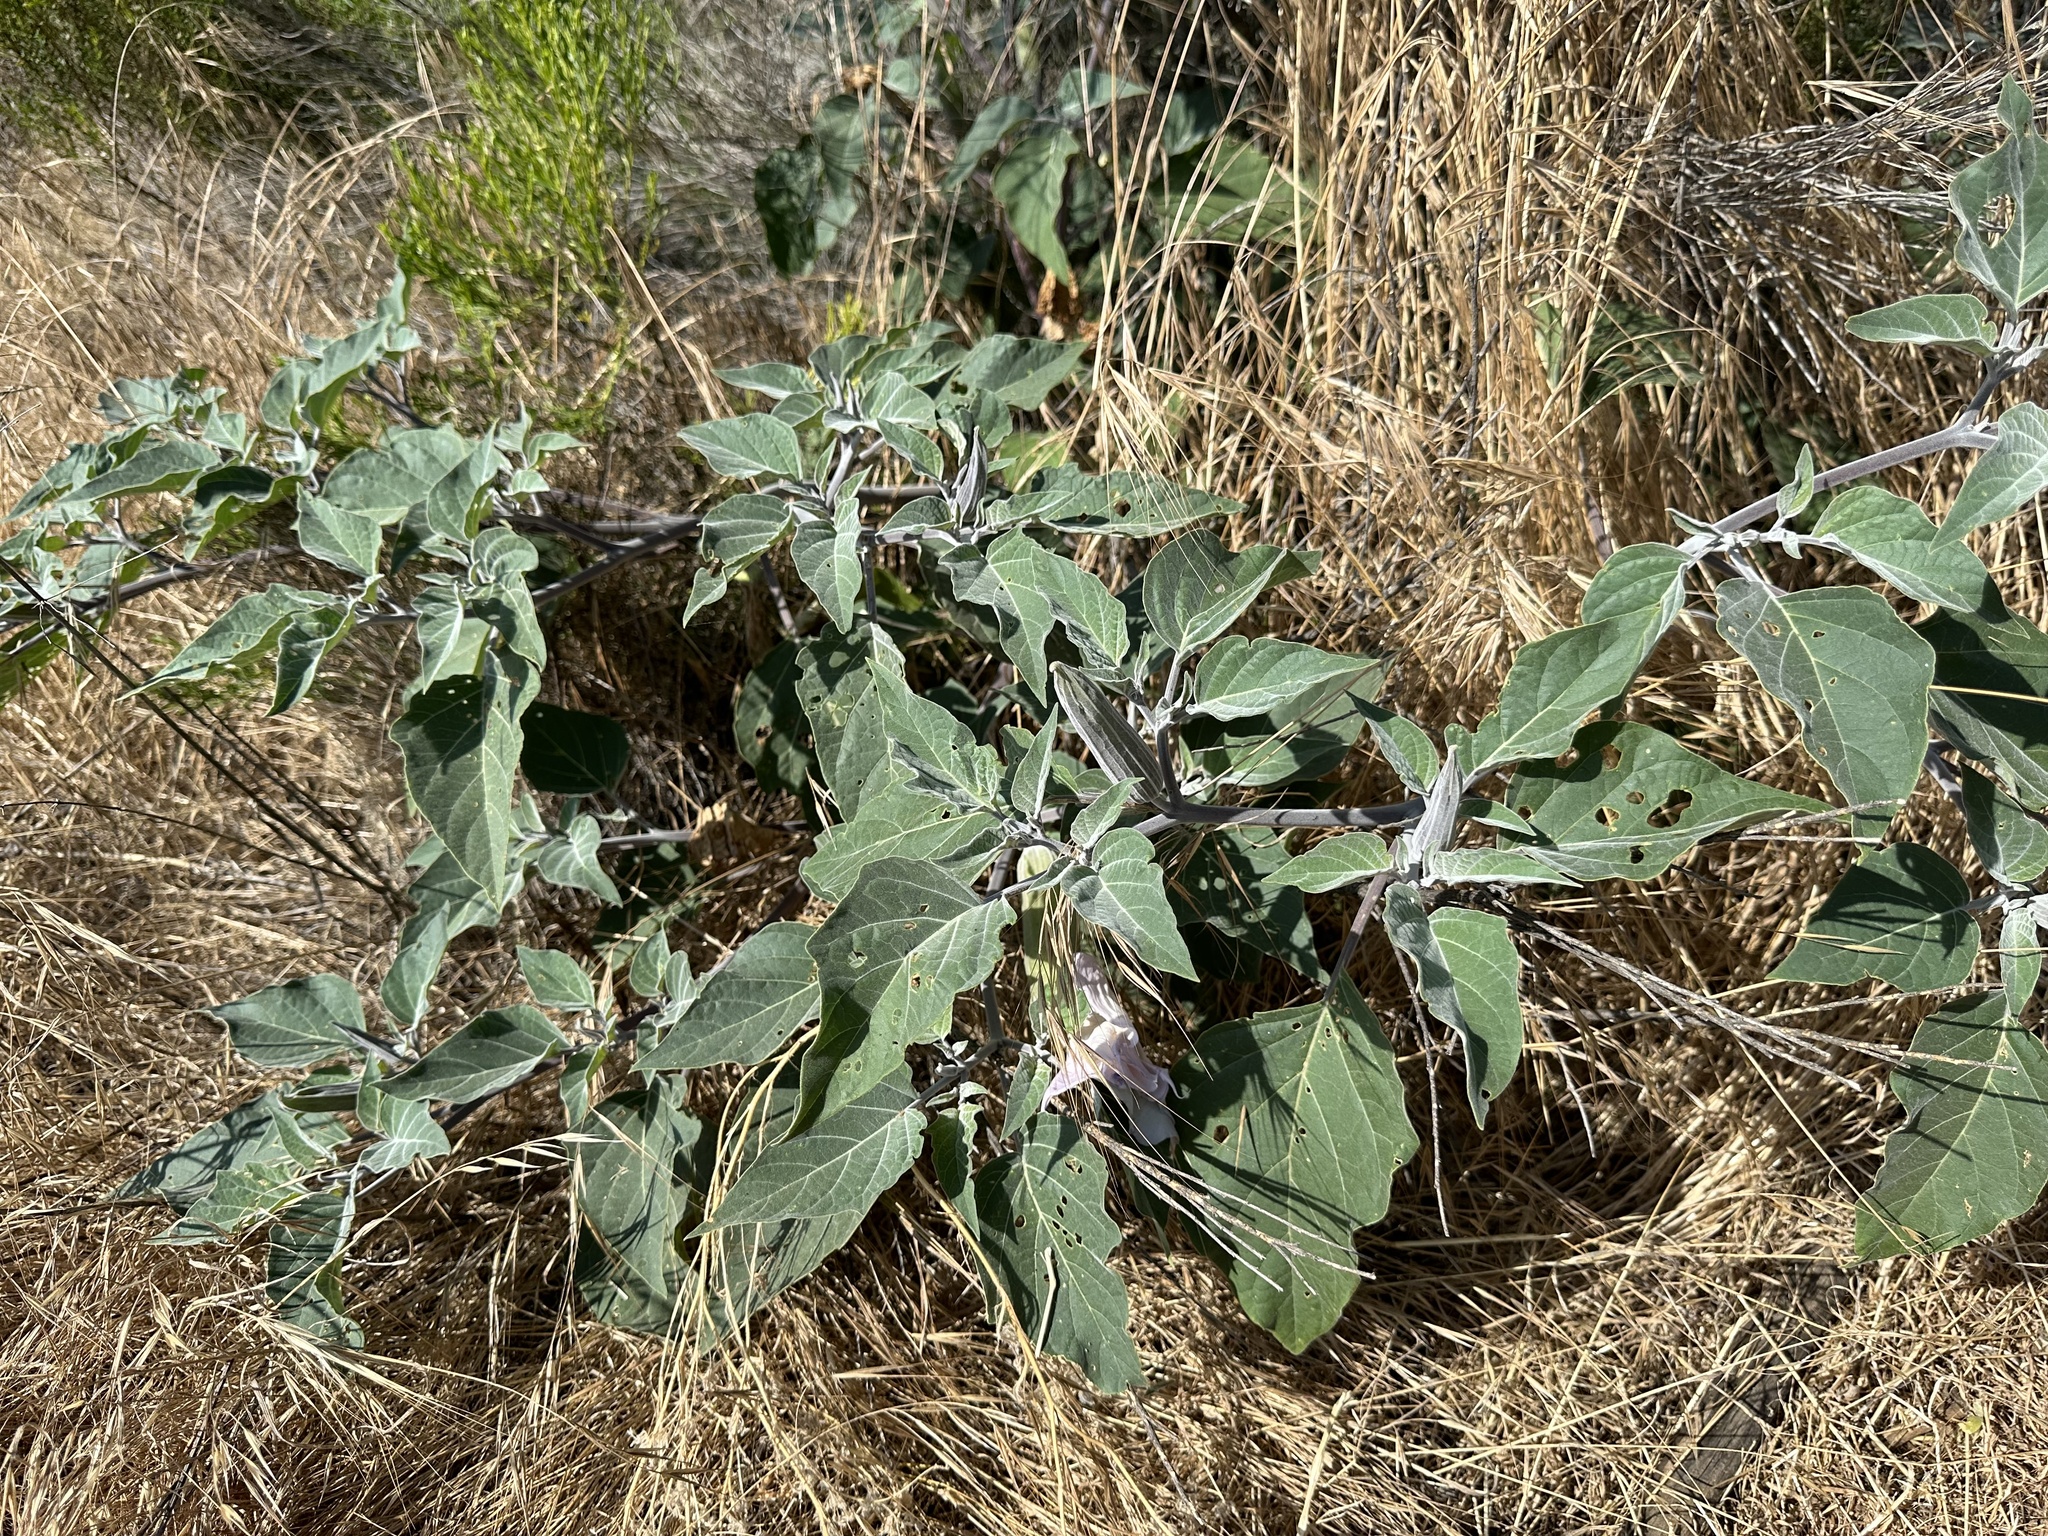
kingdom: Plantae
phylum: Tracheophyta
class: Magnoliopsida
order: Solanales
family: Solanaceae
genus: Datura
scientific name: Datura wrightii
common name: Sacred thorn-apple
